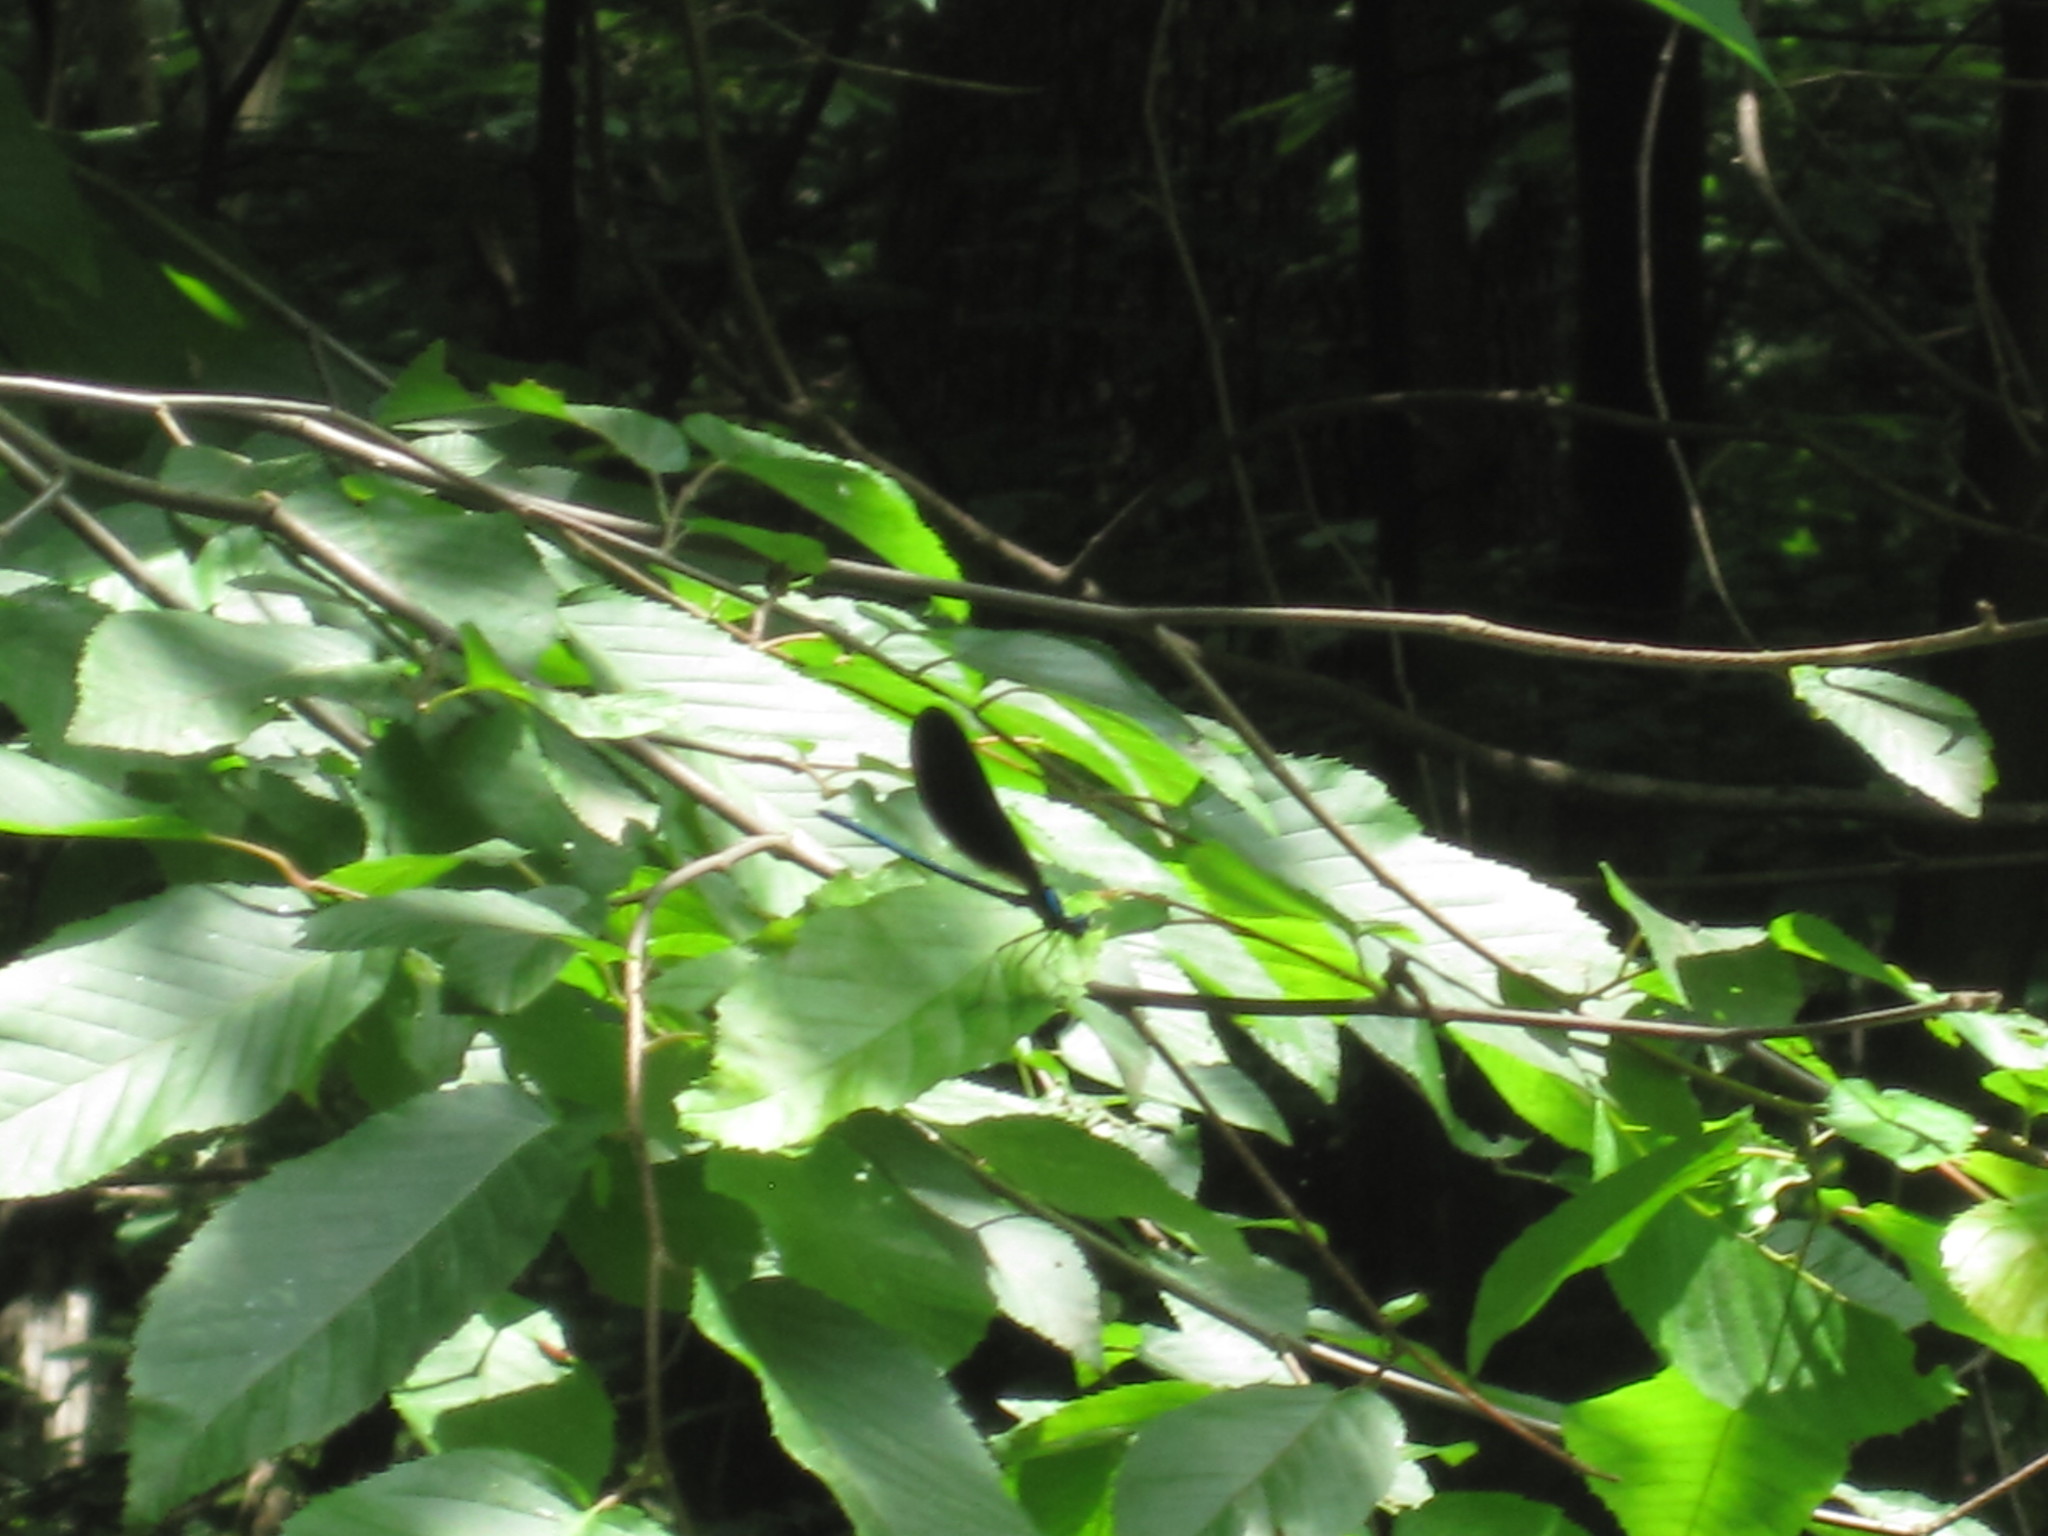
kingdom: Animalia
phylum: Arthropoda
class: Insecta
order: Odonata
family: Calopterygidae
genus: Calopteryx
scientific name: Calopteryx maculata
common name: Ebony jewelwing
